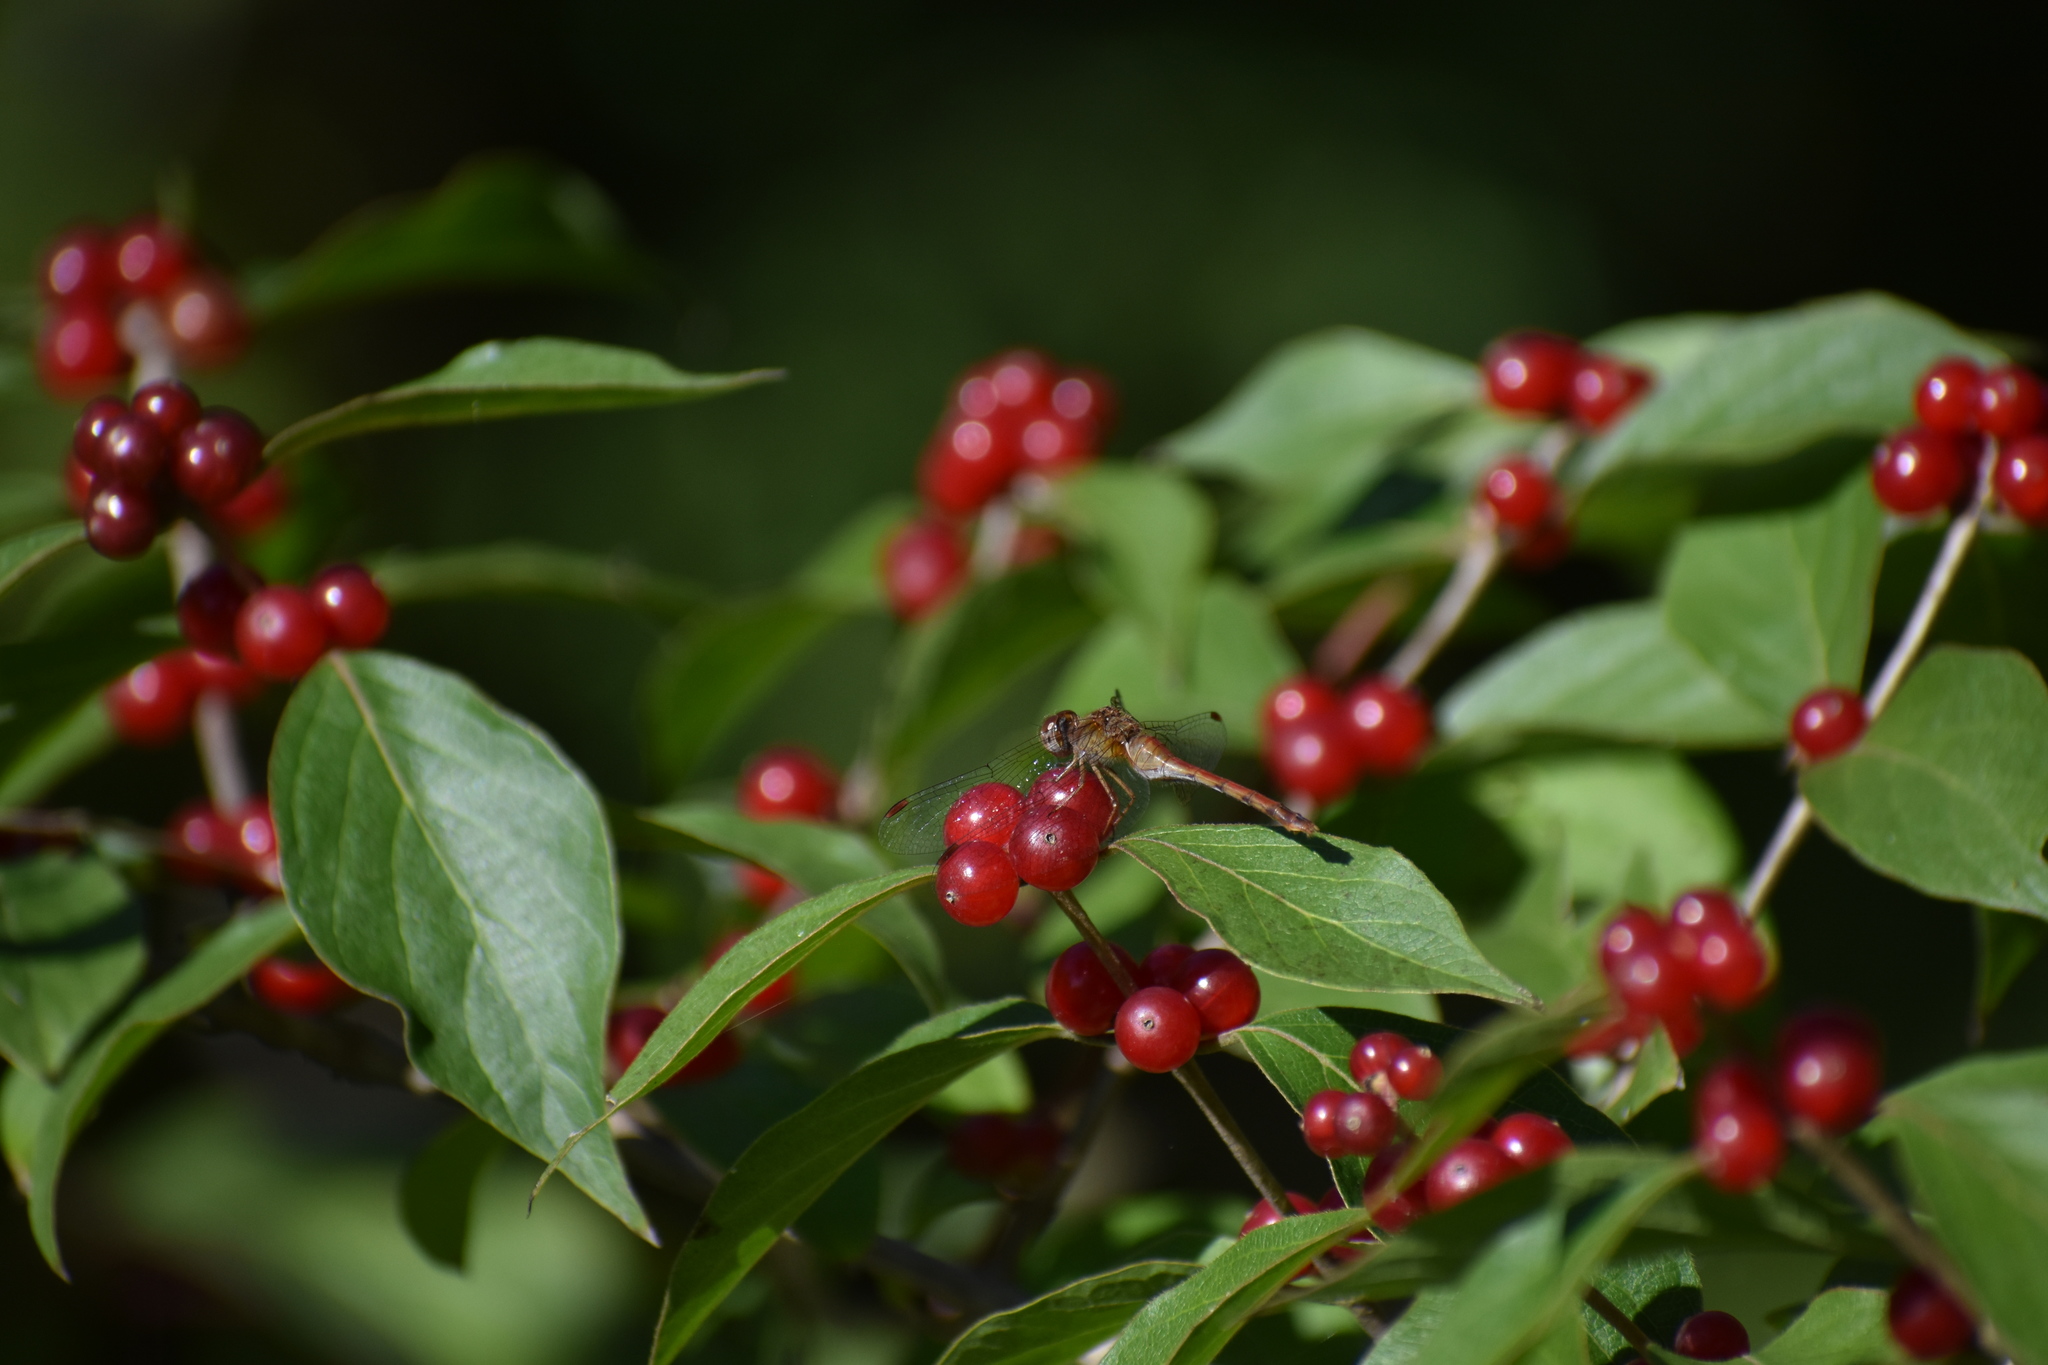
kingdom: Animalia
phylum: Arthropoda
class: Insecta
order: Odonata
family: Libellulidae
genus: Sympetrum
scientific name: Sympetrum vicinum
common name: Autumn meadowhawk
